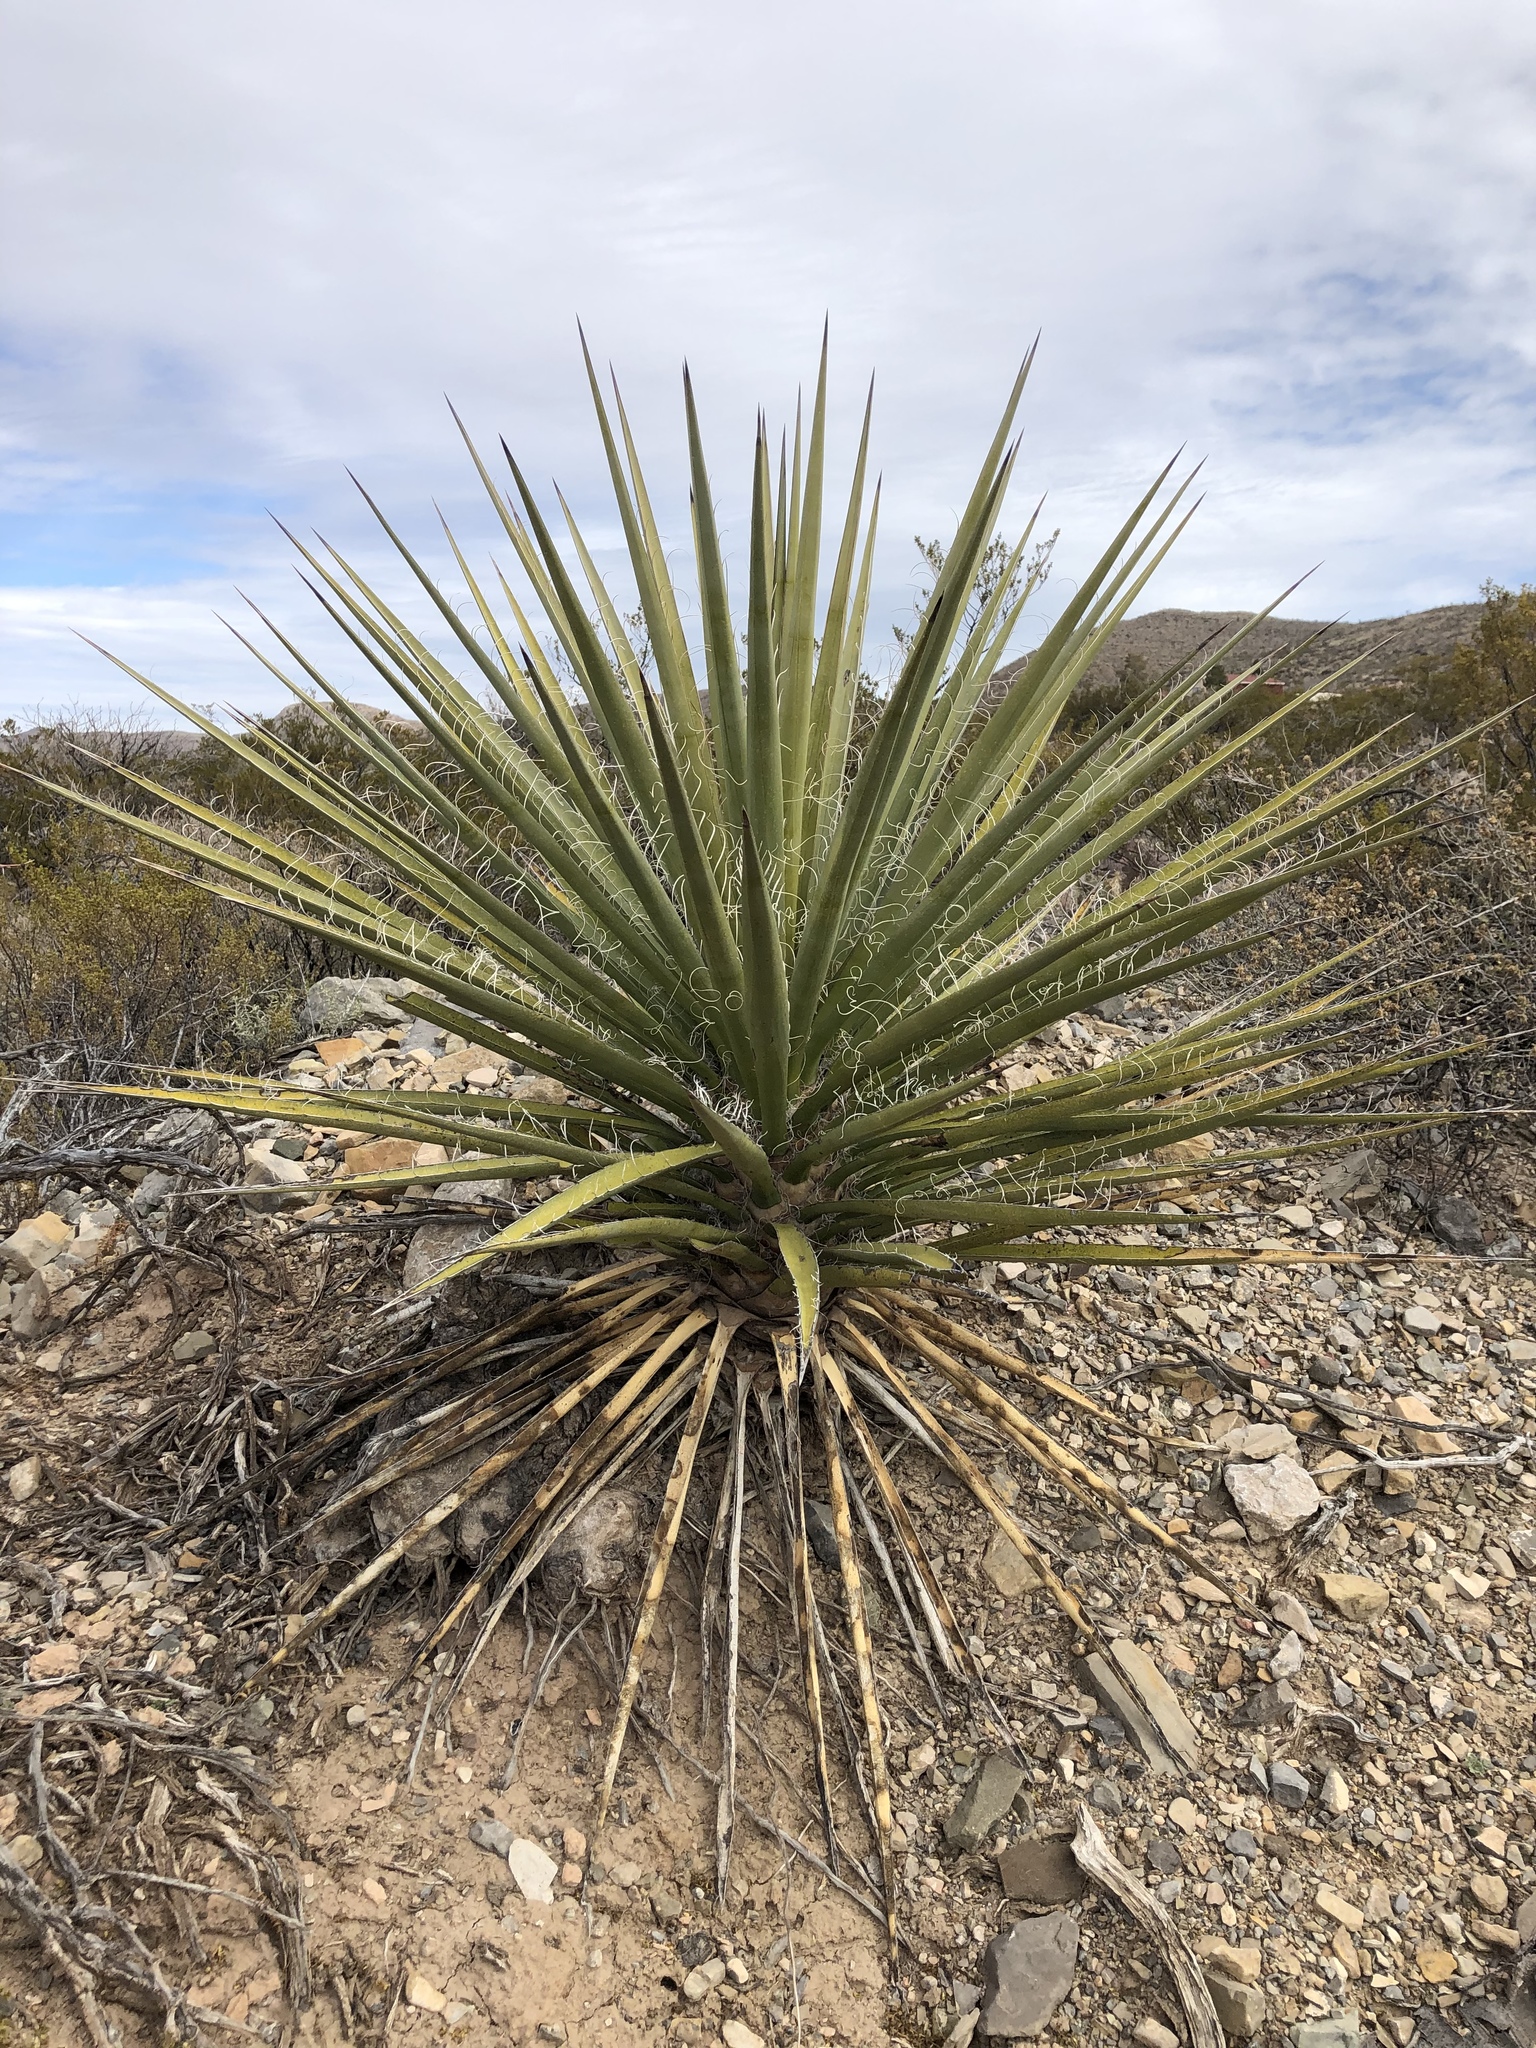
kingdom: Plantae
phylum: Tracheophyta
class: Liliopsida
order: Asparagales
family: Asparagaceae
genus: Yucca
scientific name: Yucca treculiana
